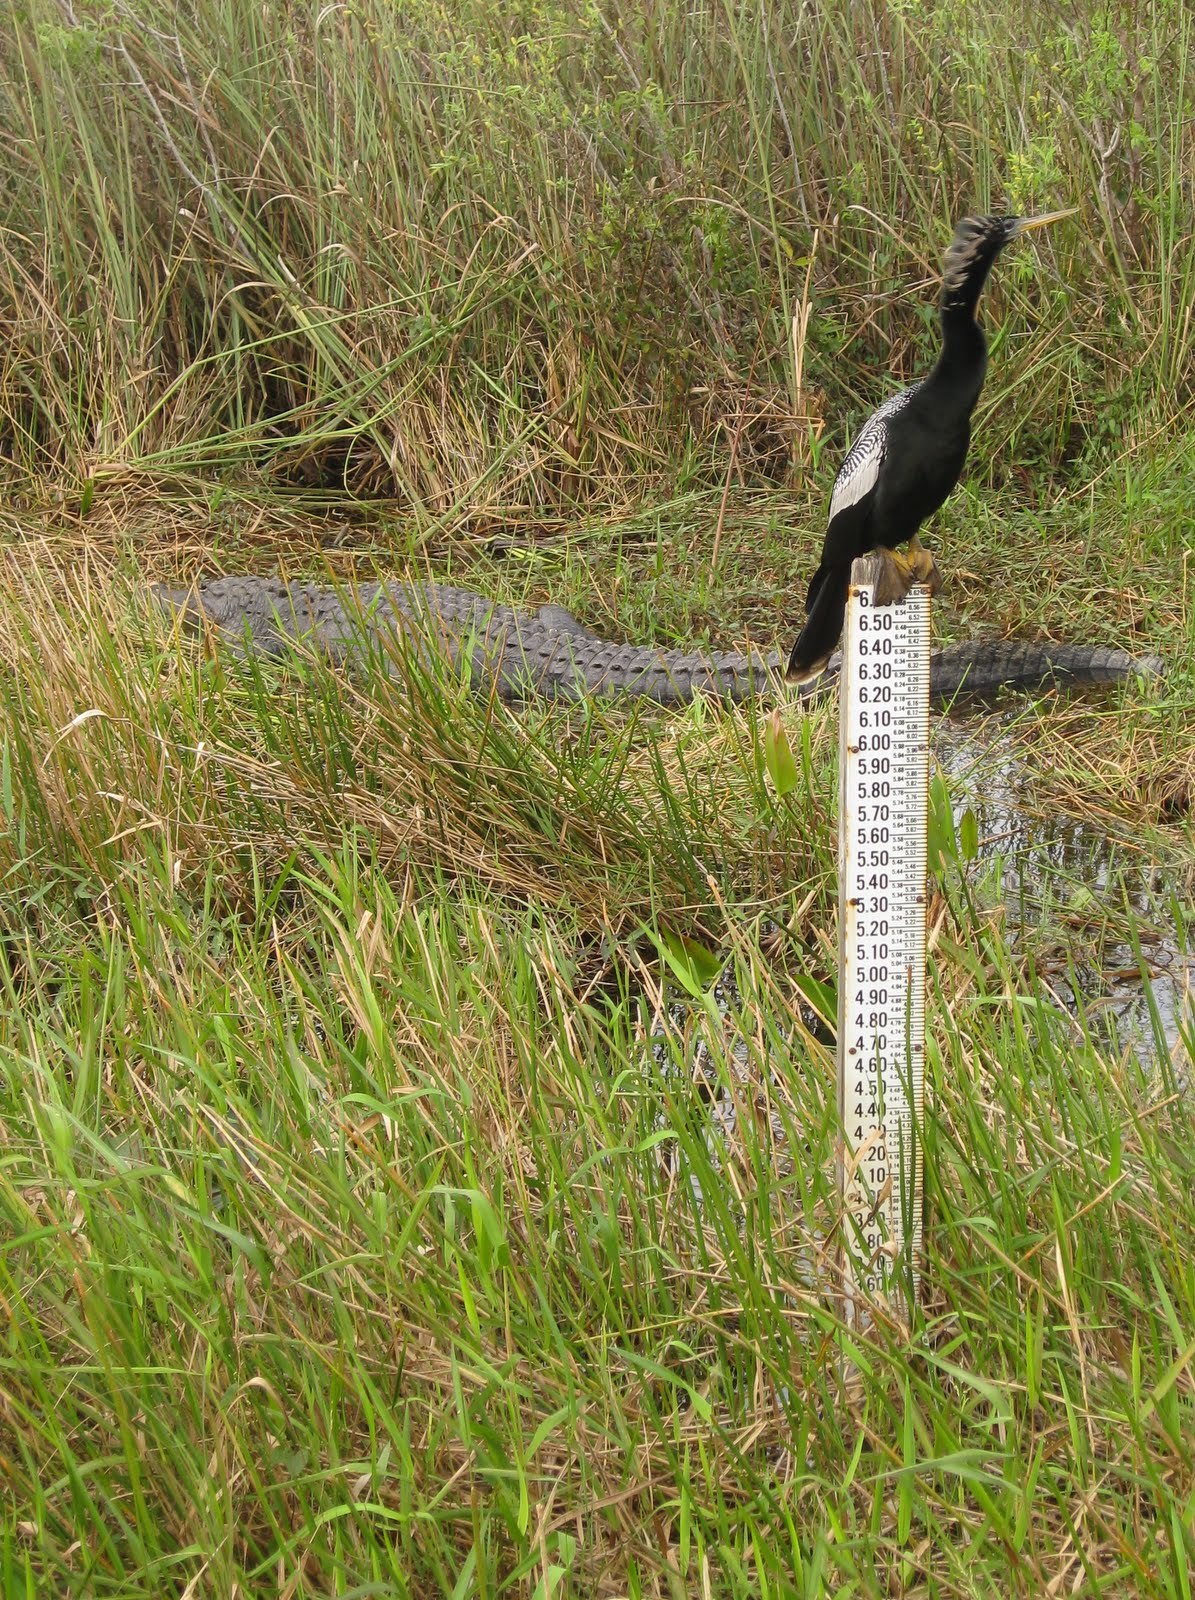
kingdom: Animalia
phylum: Chordata
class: Aves
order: Suliformes
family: Anhingidae
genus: Anhinga
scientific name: Anhinga anhinga
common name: Anhinga
